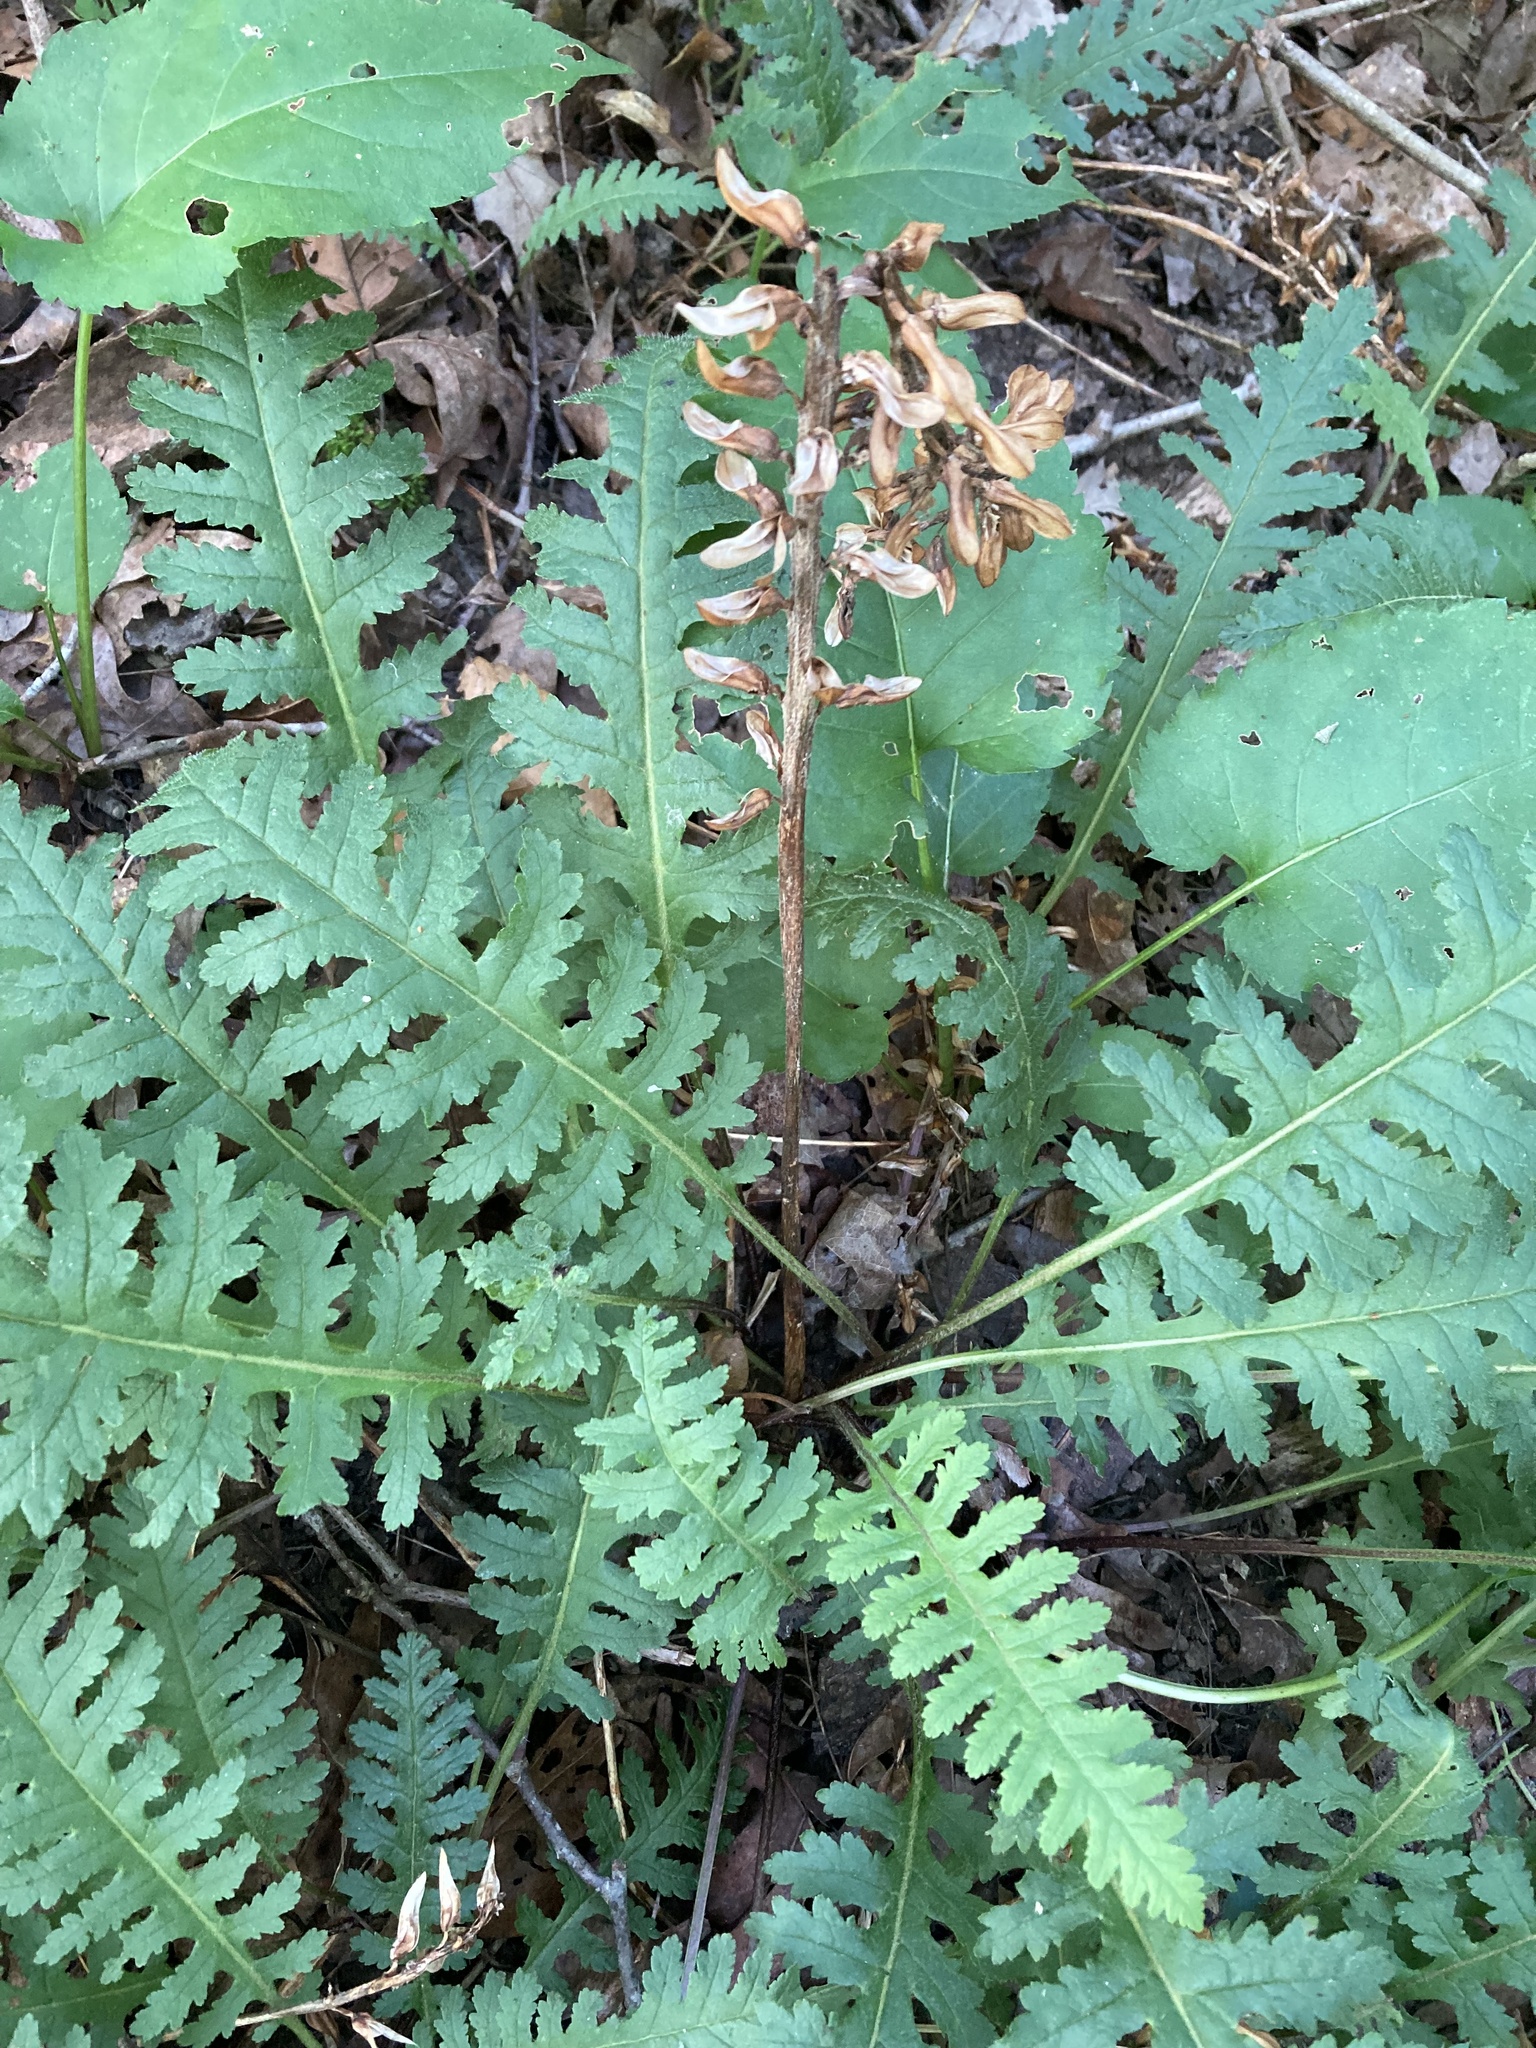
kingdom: Plantae
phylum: Tracheophyta
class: Magnoliopsida
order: Lamiales
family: Orobanchaceae
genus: Pedicularis
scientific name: Pedicularis canadensis
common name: Early lousewort
